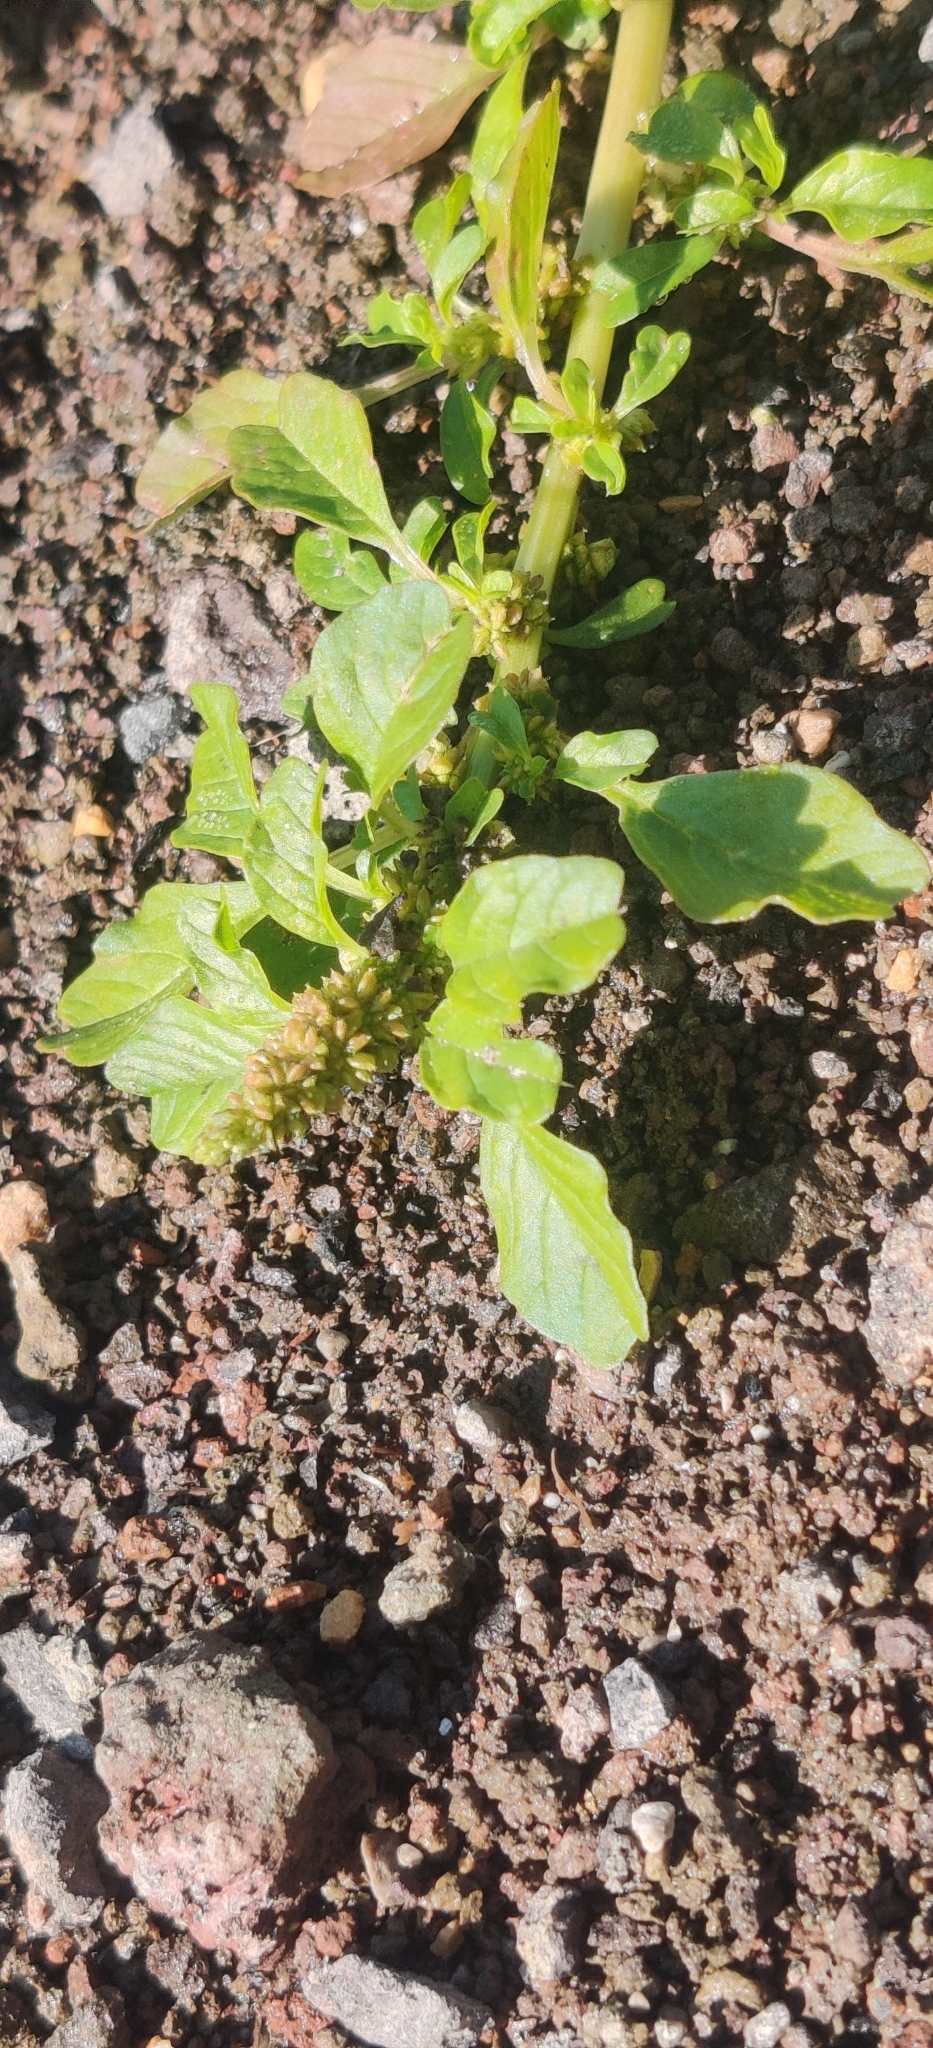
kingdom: Plantae
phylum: Tracheophyta
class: Magnoliopsida
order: Caryophyllales
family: Amaranthaceae
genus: Amaranthus
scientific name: Amaranthus blitum
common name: Purple amaranth
